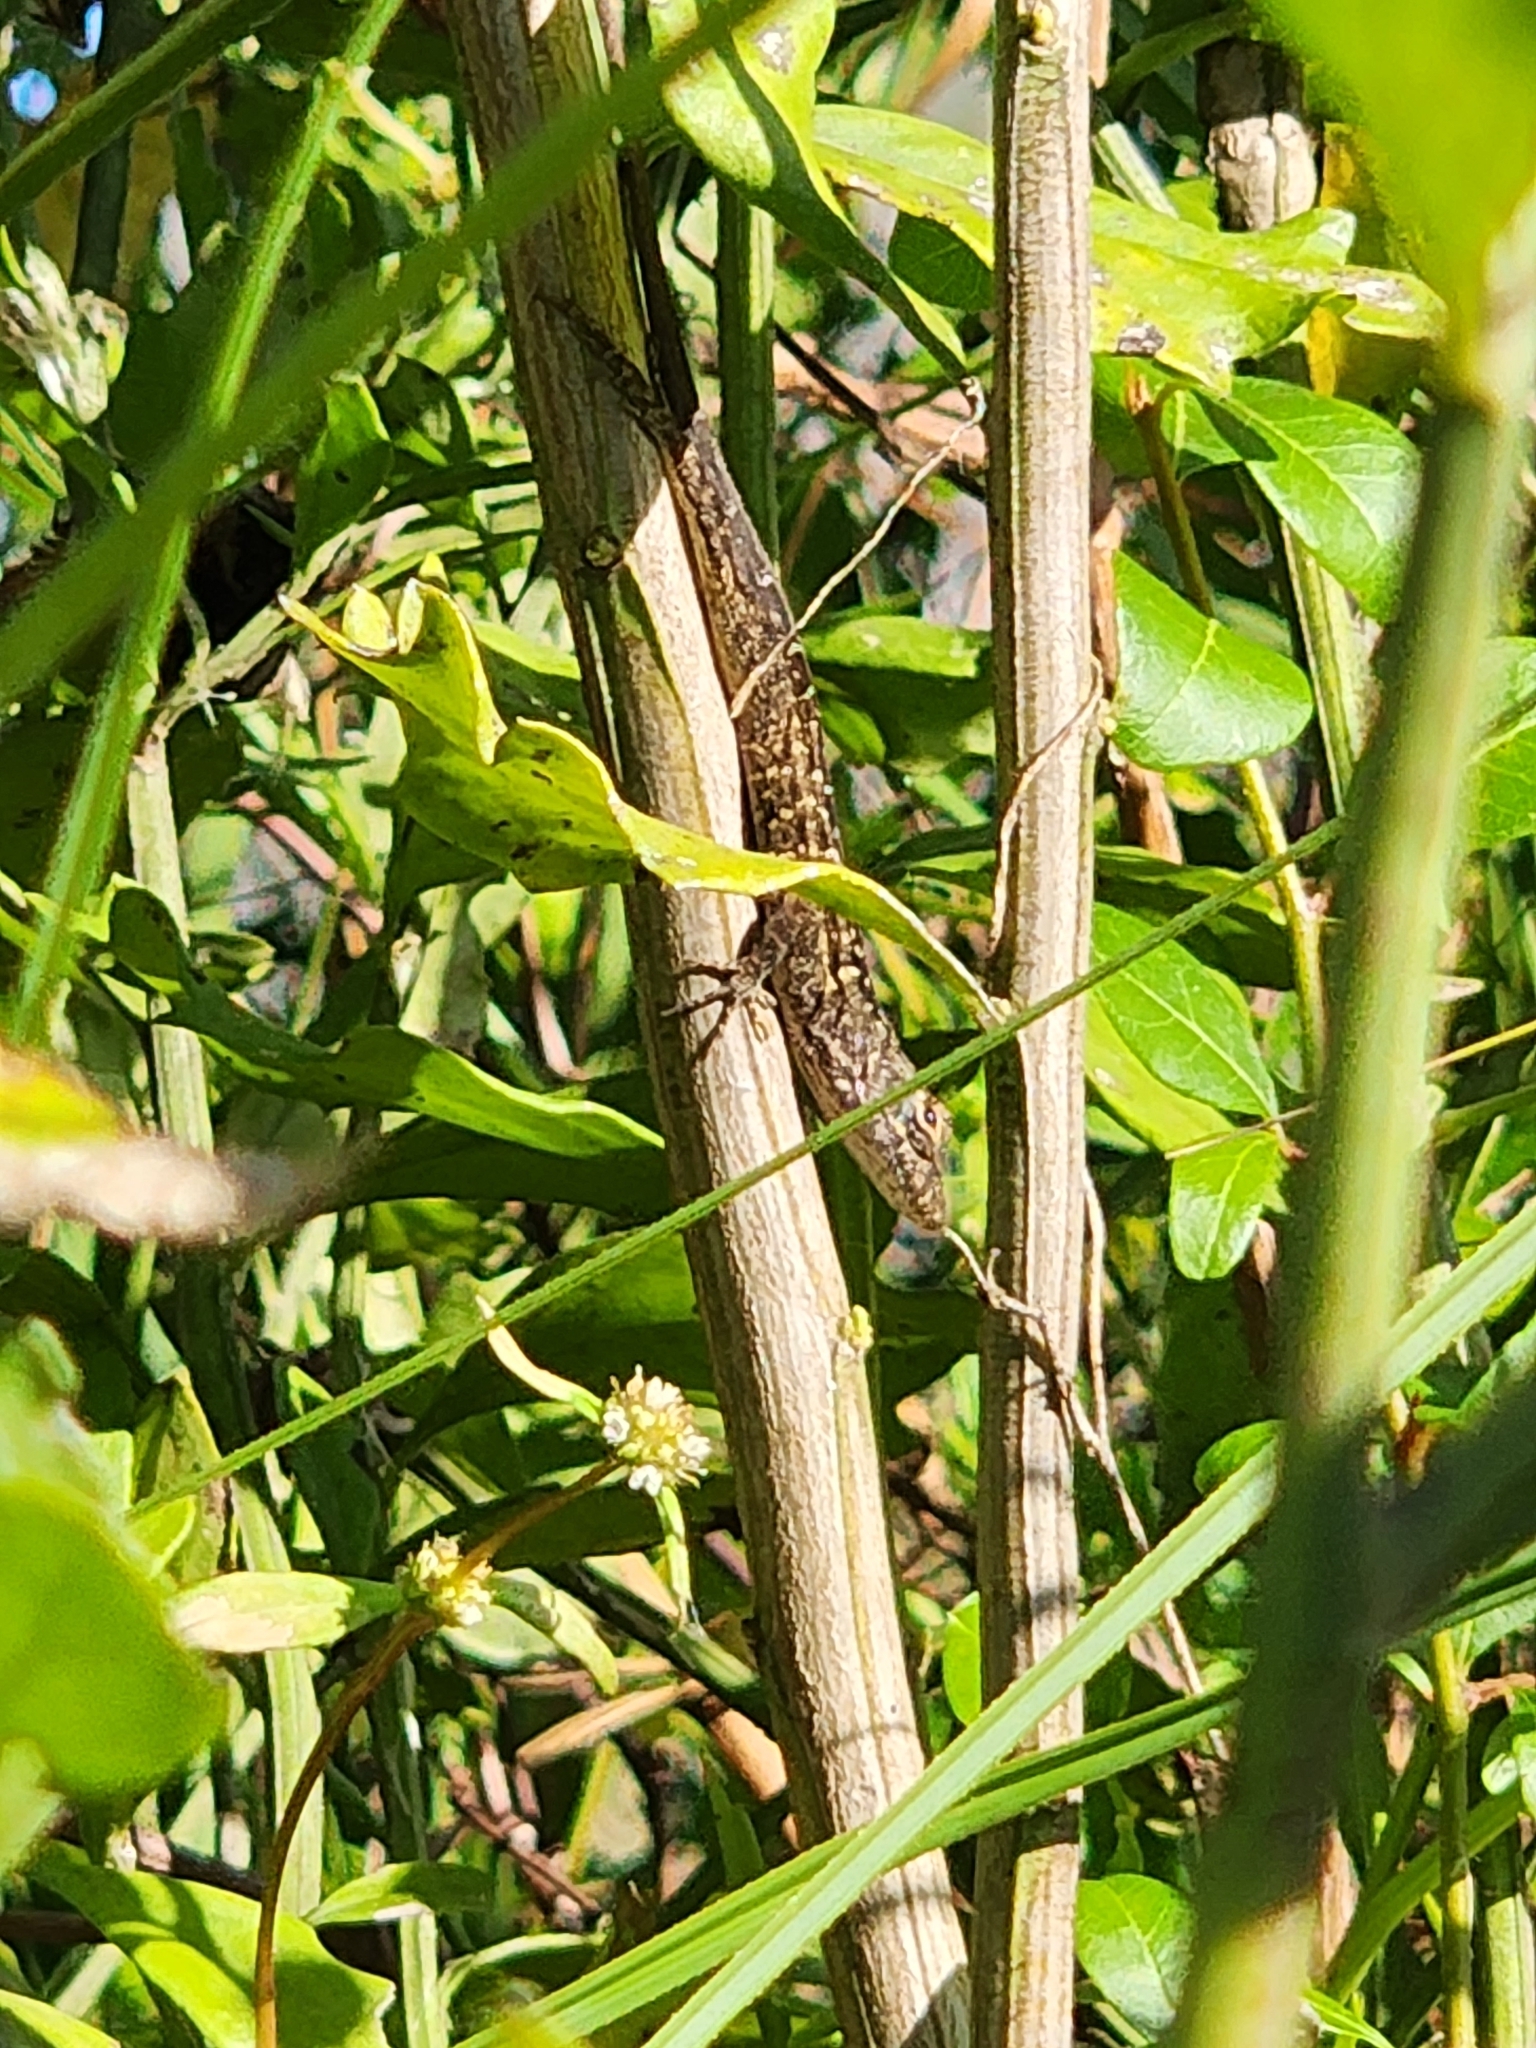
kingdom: Animalia
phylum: Chordata
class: Squamata
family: Dactyloidae
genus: Anolis
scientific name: Anolis sagrei
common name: Brown anole
